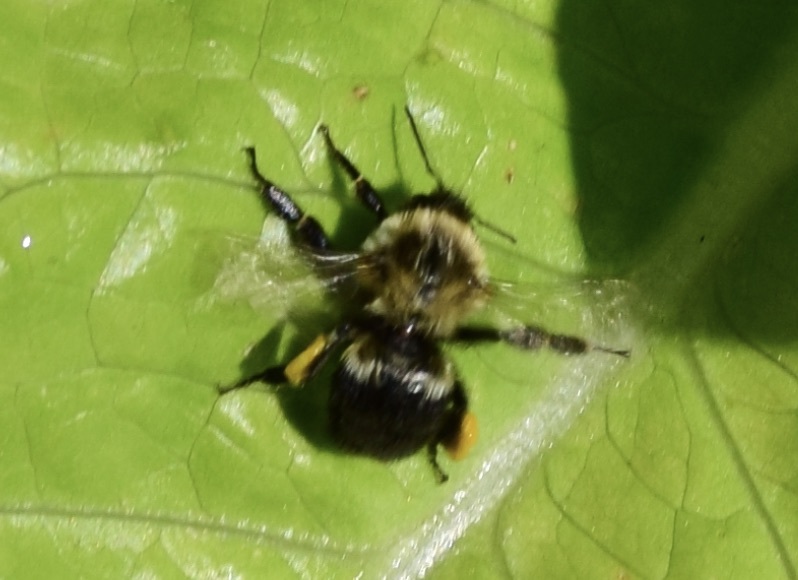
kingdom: Animalia
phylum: Arthropoda
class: Insecta
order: Hymenoptera
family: Apidae
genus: Bombus
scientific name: Bombus impatiens
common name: Common eastern bumble bee
